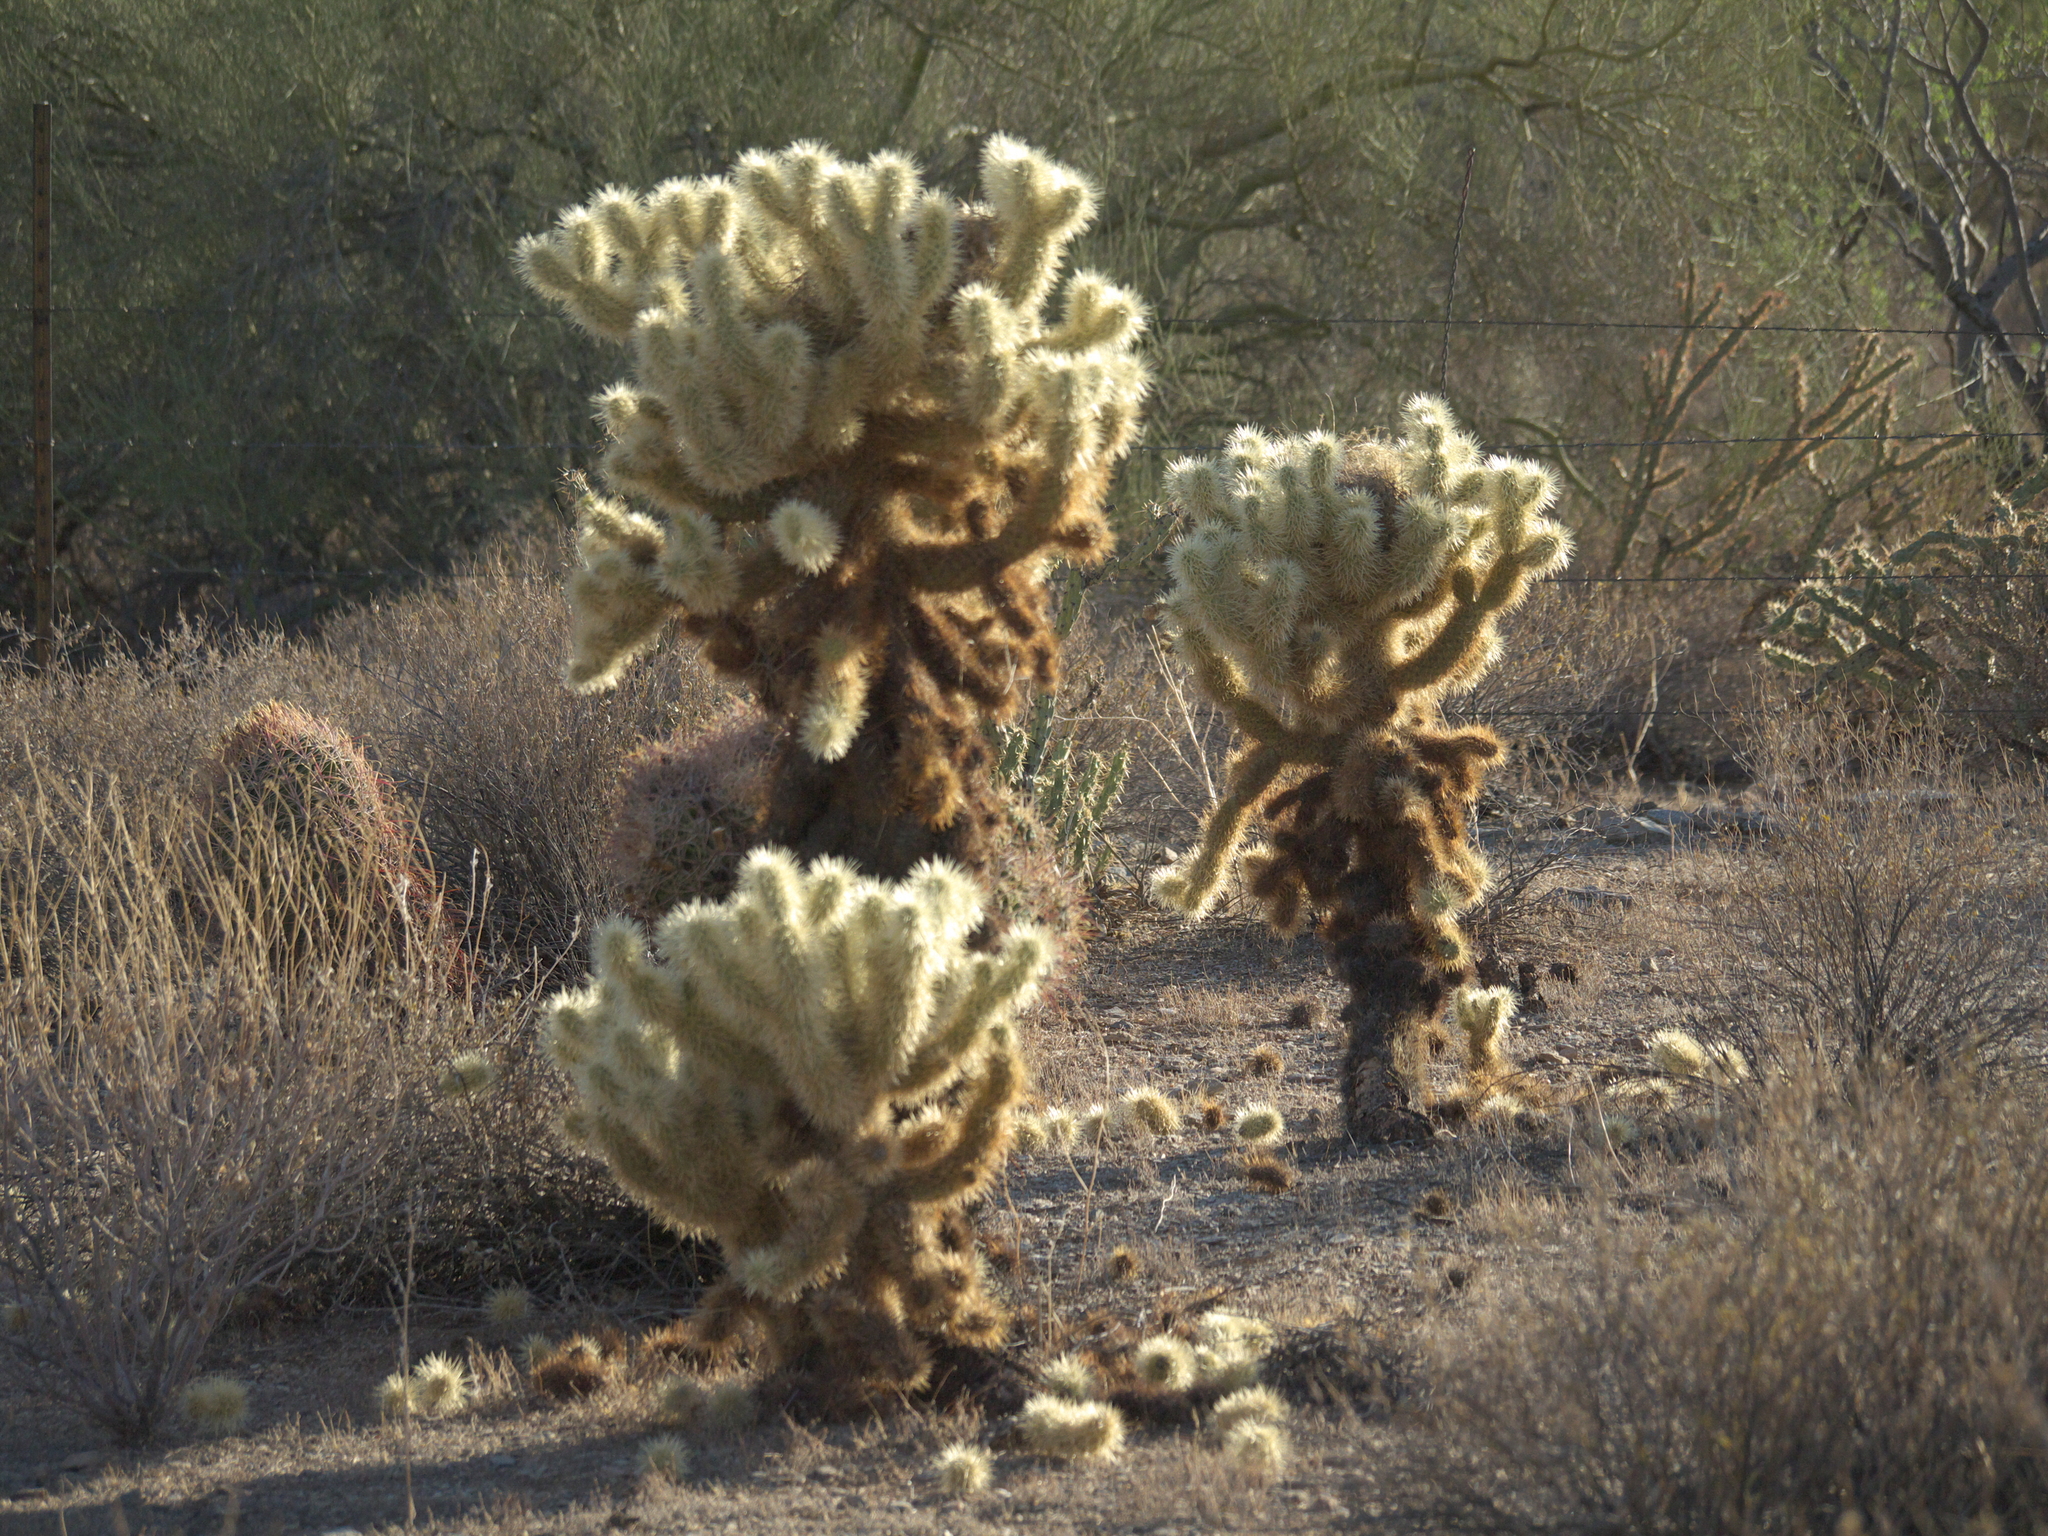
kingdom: Plantae
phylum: Tracheophyta
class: Magnoliopsida
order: Caryophyllales
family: Cactaceae
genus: Cylindropuntia
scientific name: Cylindropuntia fosbergii
